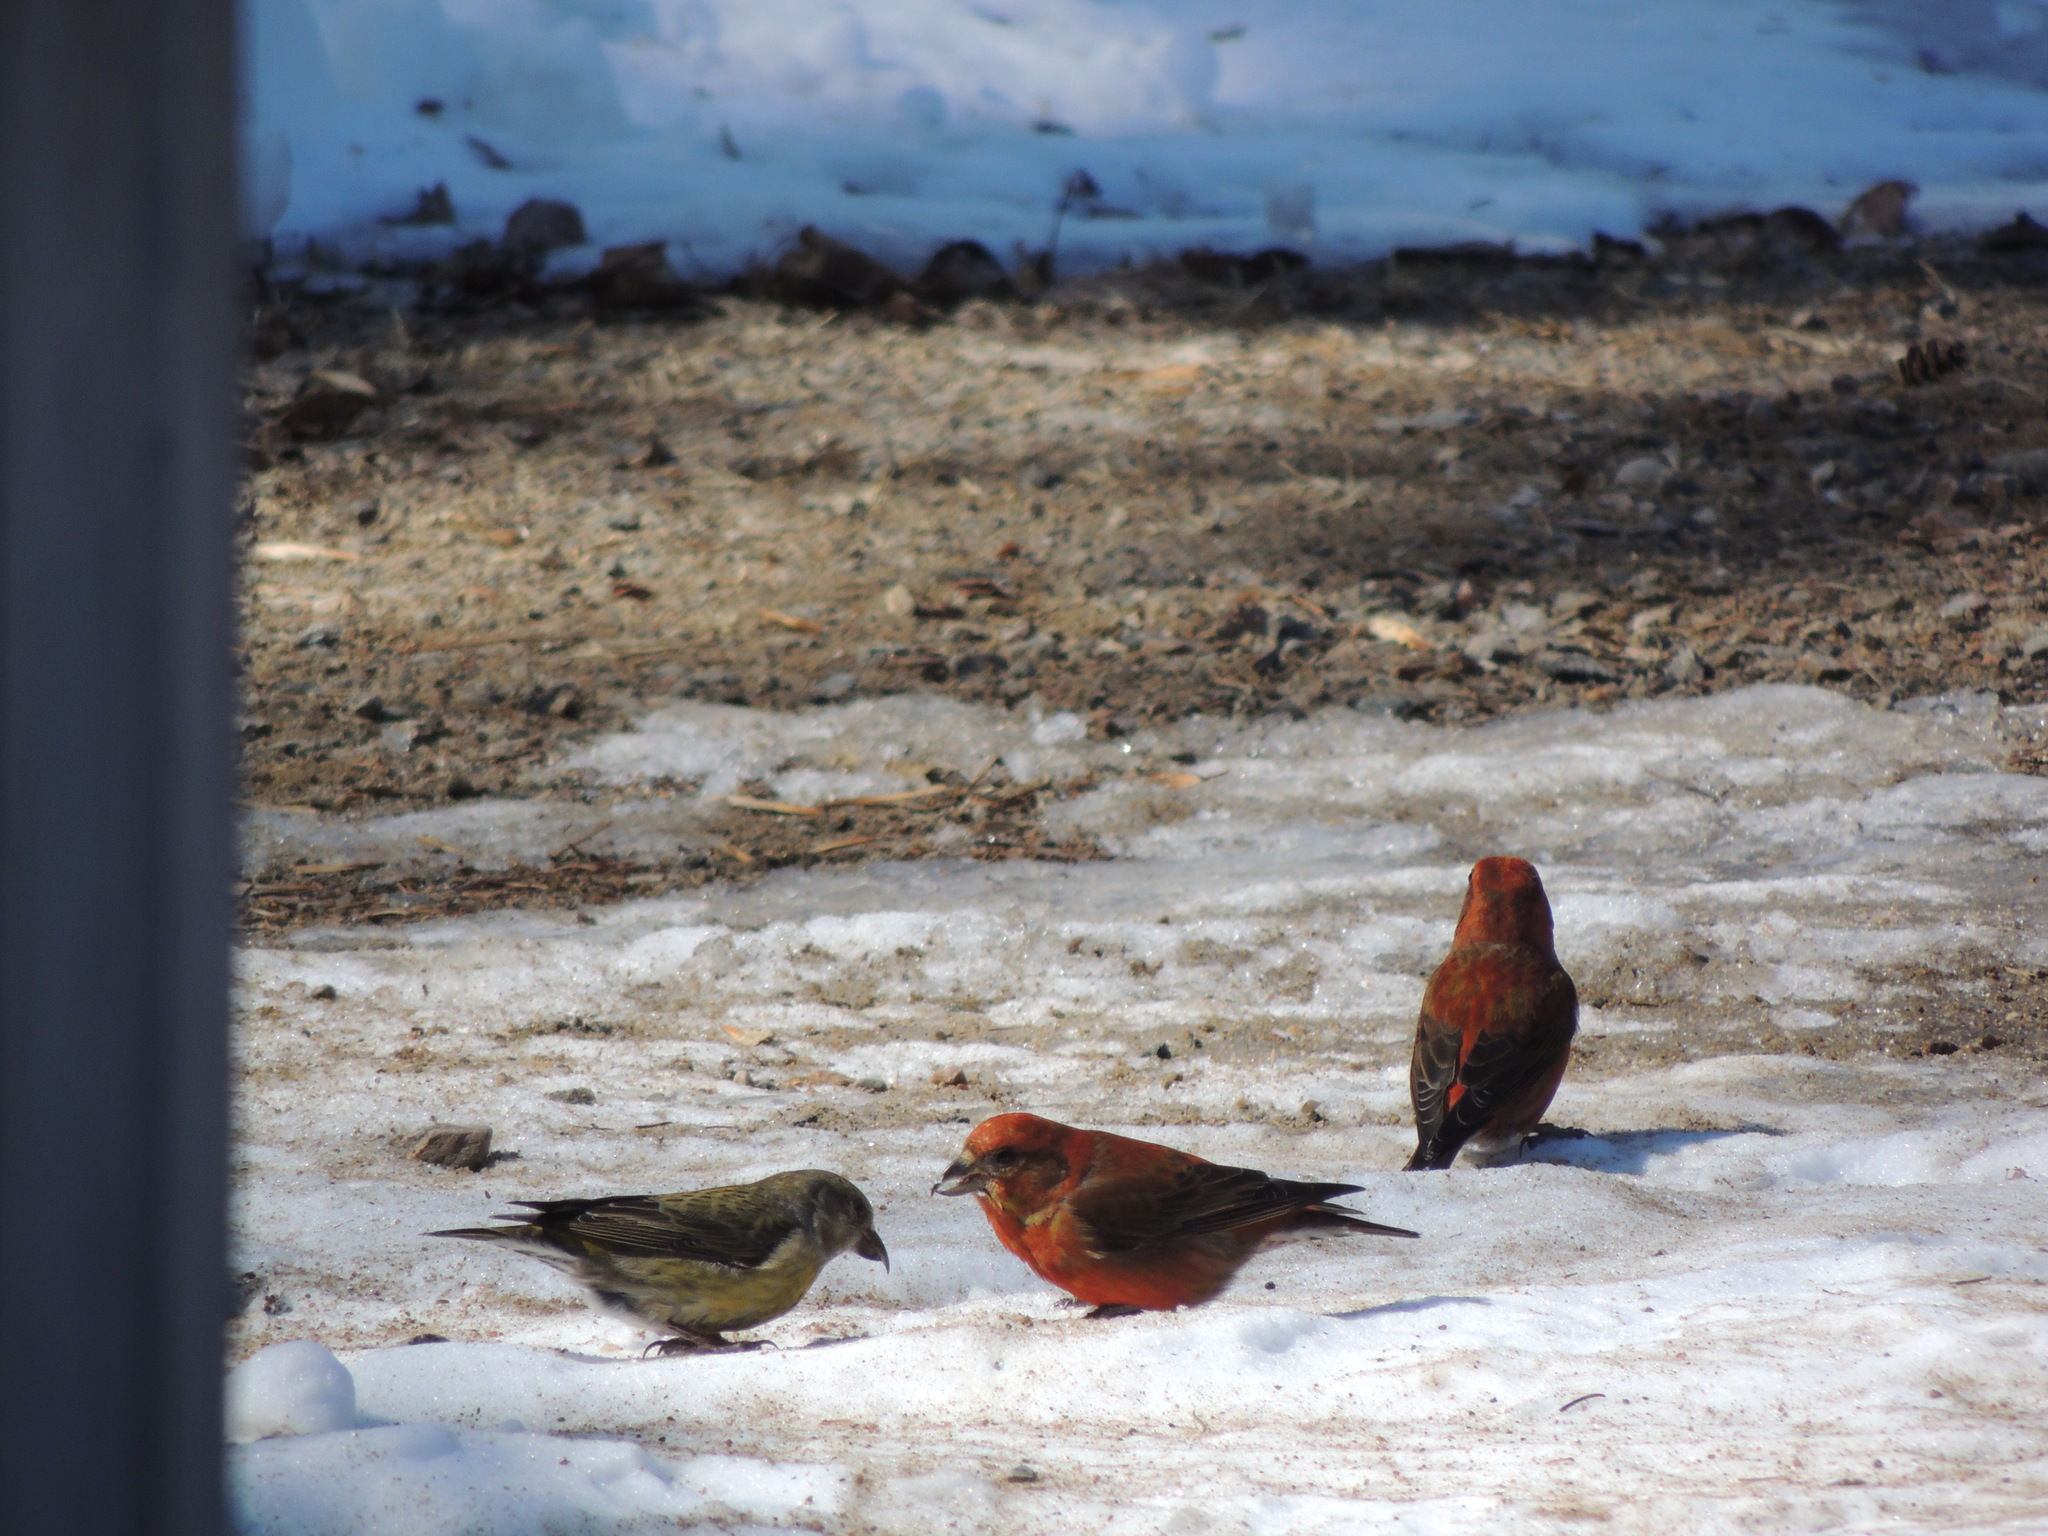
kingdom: Animalia
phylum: Chordata
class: Aves
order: Passeriformes
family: Fringillidae
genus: Loxia
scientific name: Loxia curvirostra
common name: Red crossbill
